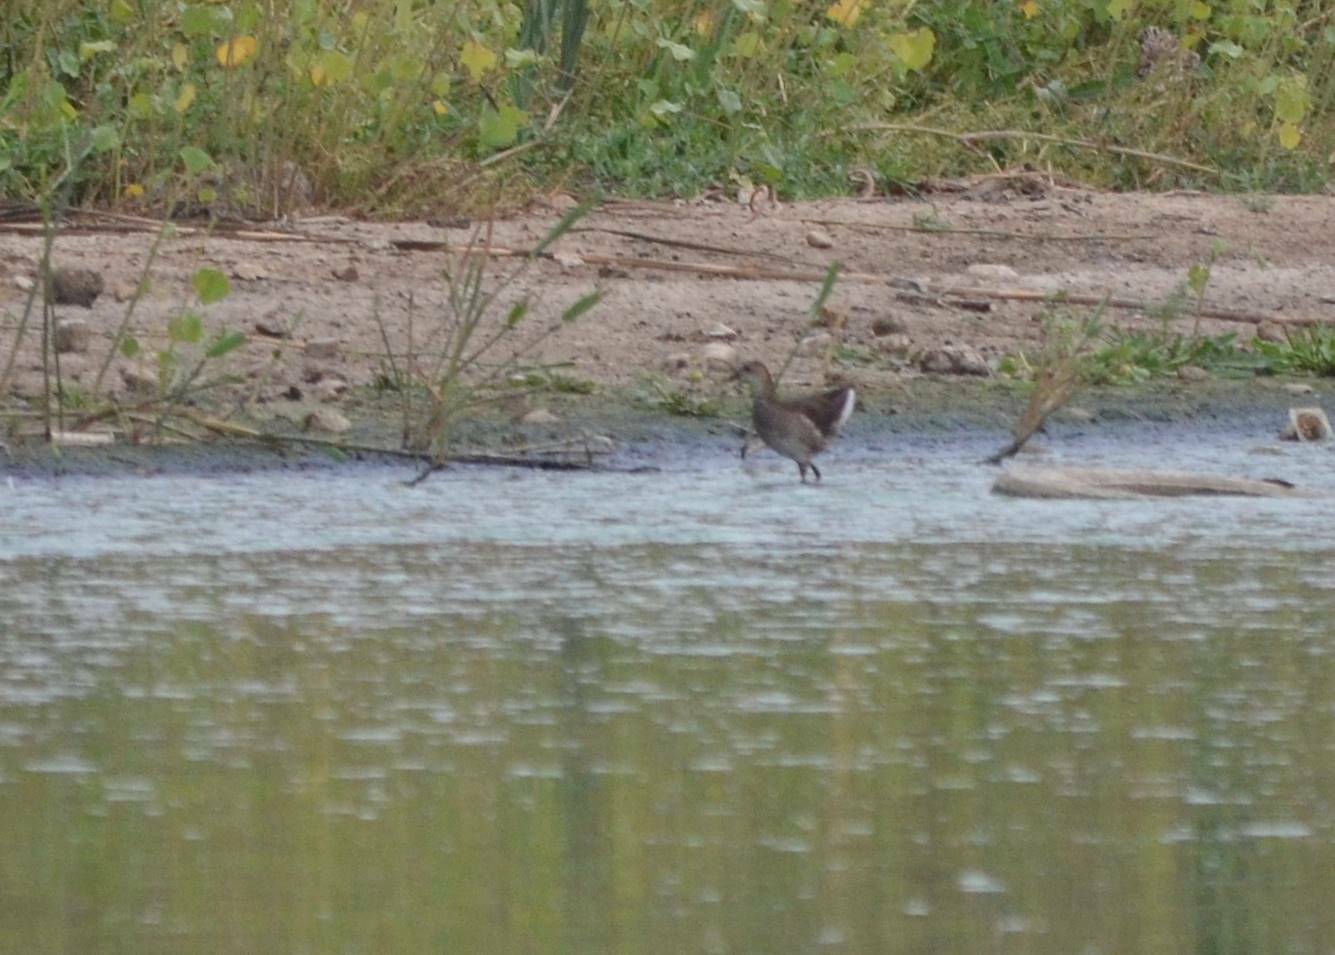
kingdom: Animalia
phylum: Chordata
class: Aves
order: Gruiformes
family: Rallidae
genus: Gallinula
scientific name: Gallinula chloropus
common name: Common moorhen
